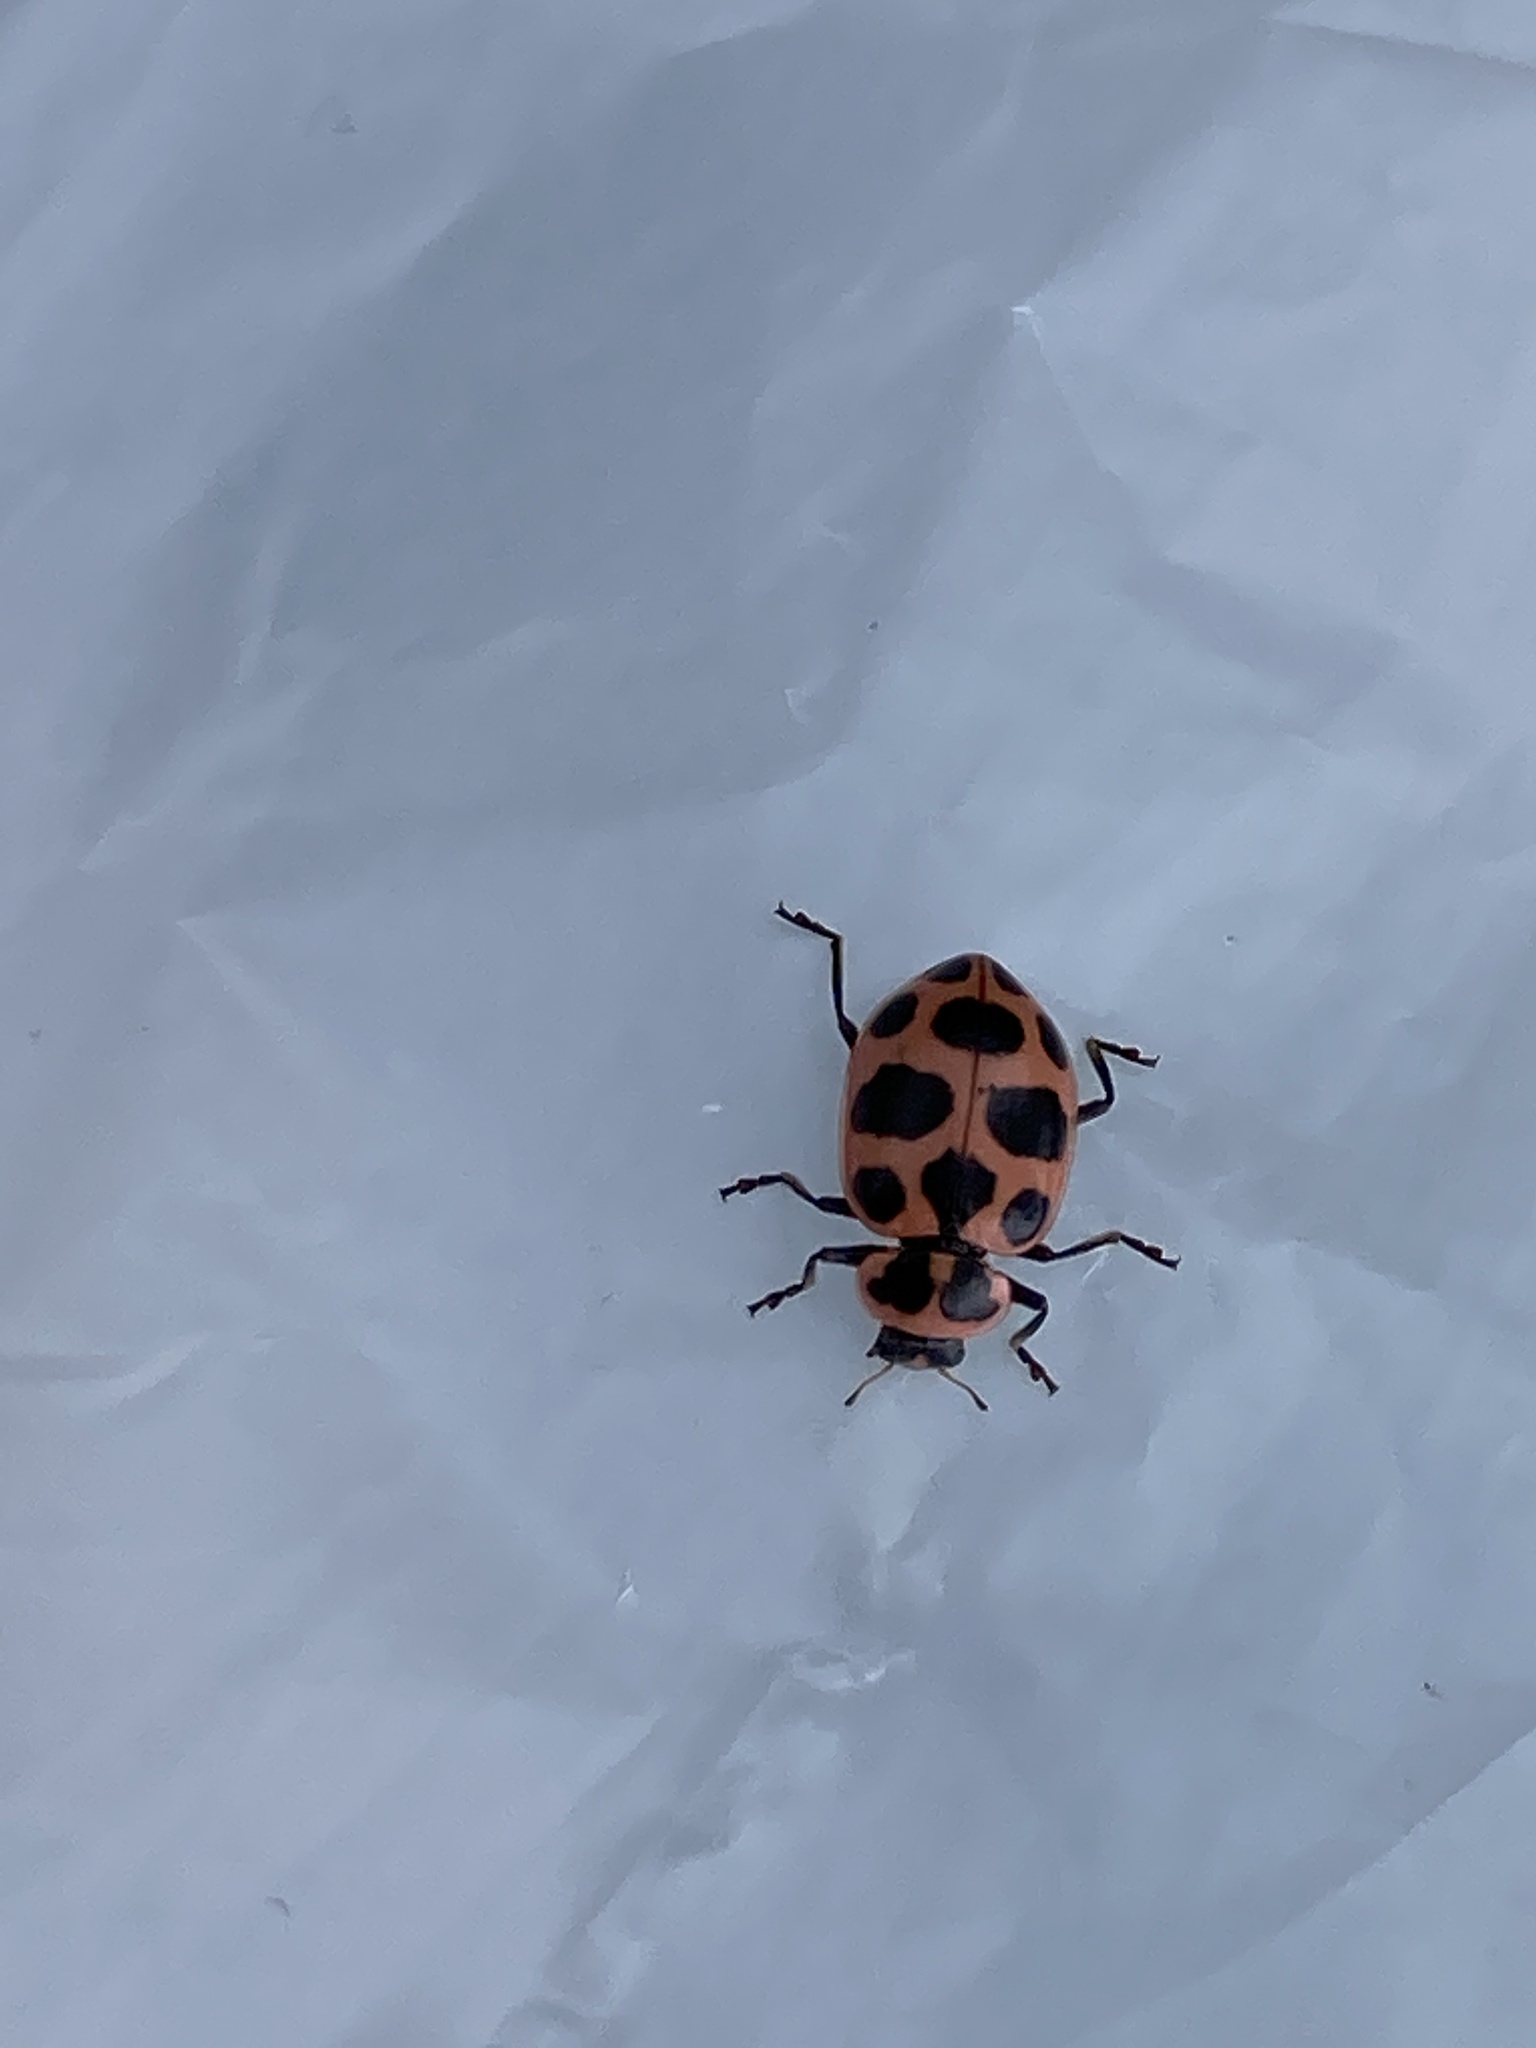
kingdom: Animalia
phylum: Arthropoda
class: Insecta
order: Coleoptera
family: Coccinellidae
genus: Coleomegilla
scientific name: Coleomegilla maculata
